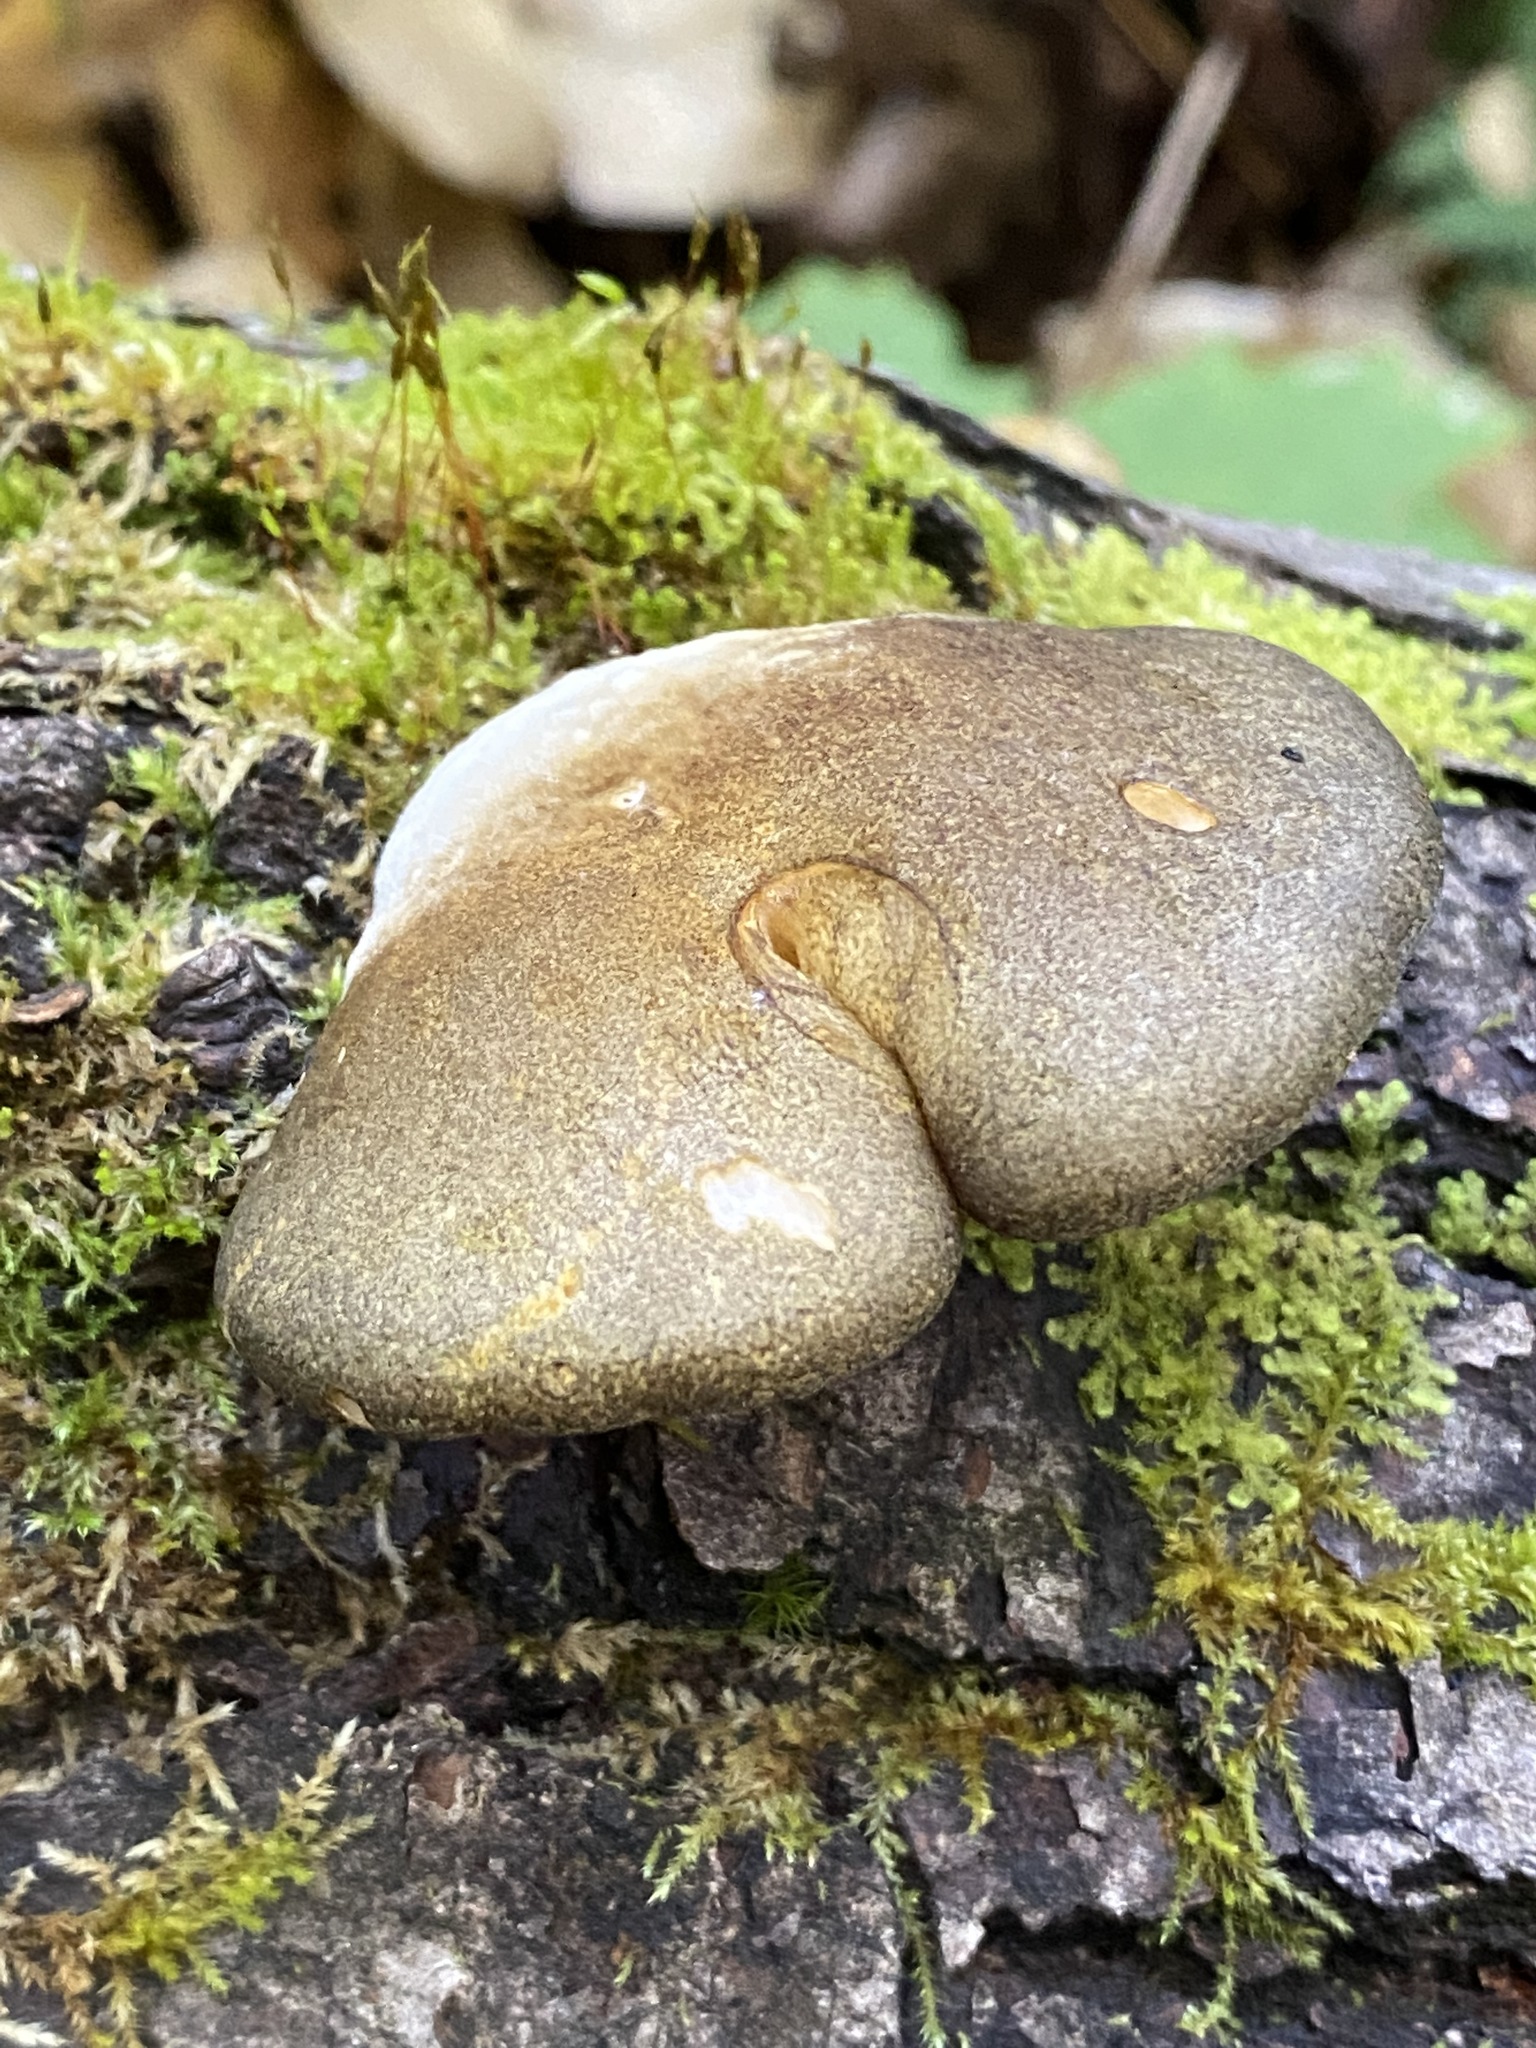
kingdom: Fungi
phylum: Basidiomycota
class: Agaricomycetes
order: Agaricales
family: Sarcomyxaceae
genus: Sarcomyxa
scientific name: Sarcomyxa serotina
